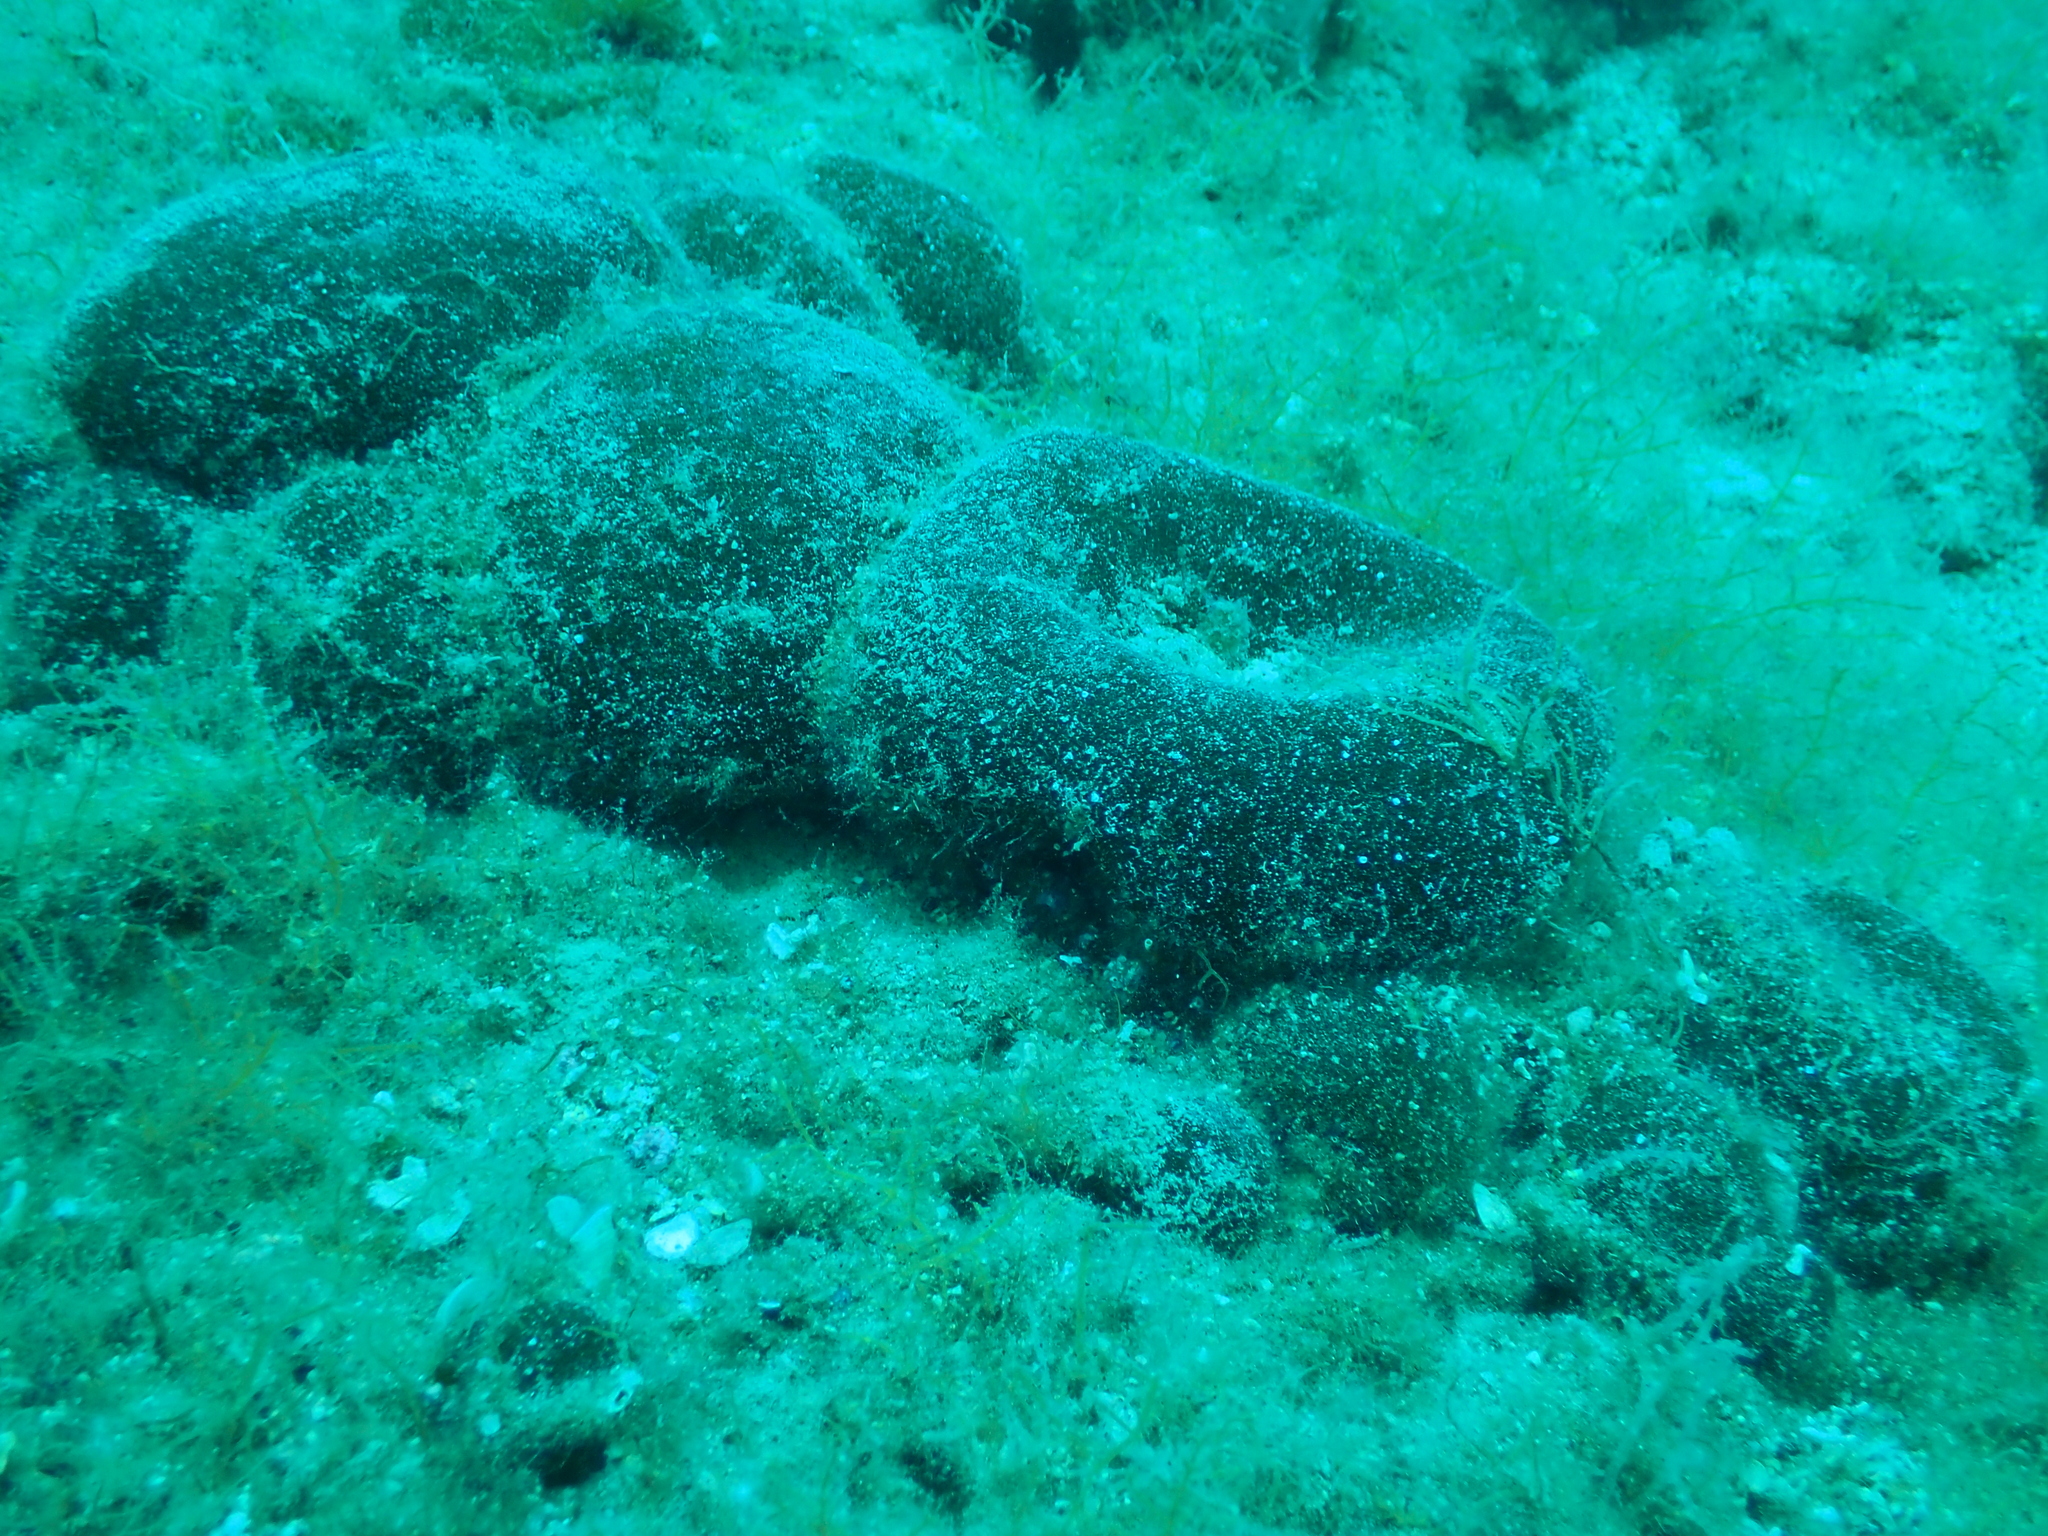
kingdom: Plantae
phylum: Chlorophyta
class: Ulvophyceae
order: Bryopsidales
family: Codiaceae
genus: Codium
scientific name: Codium bursa
